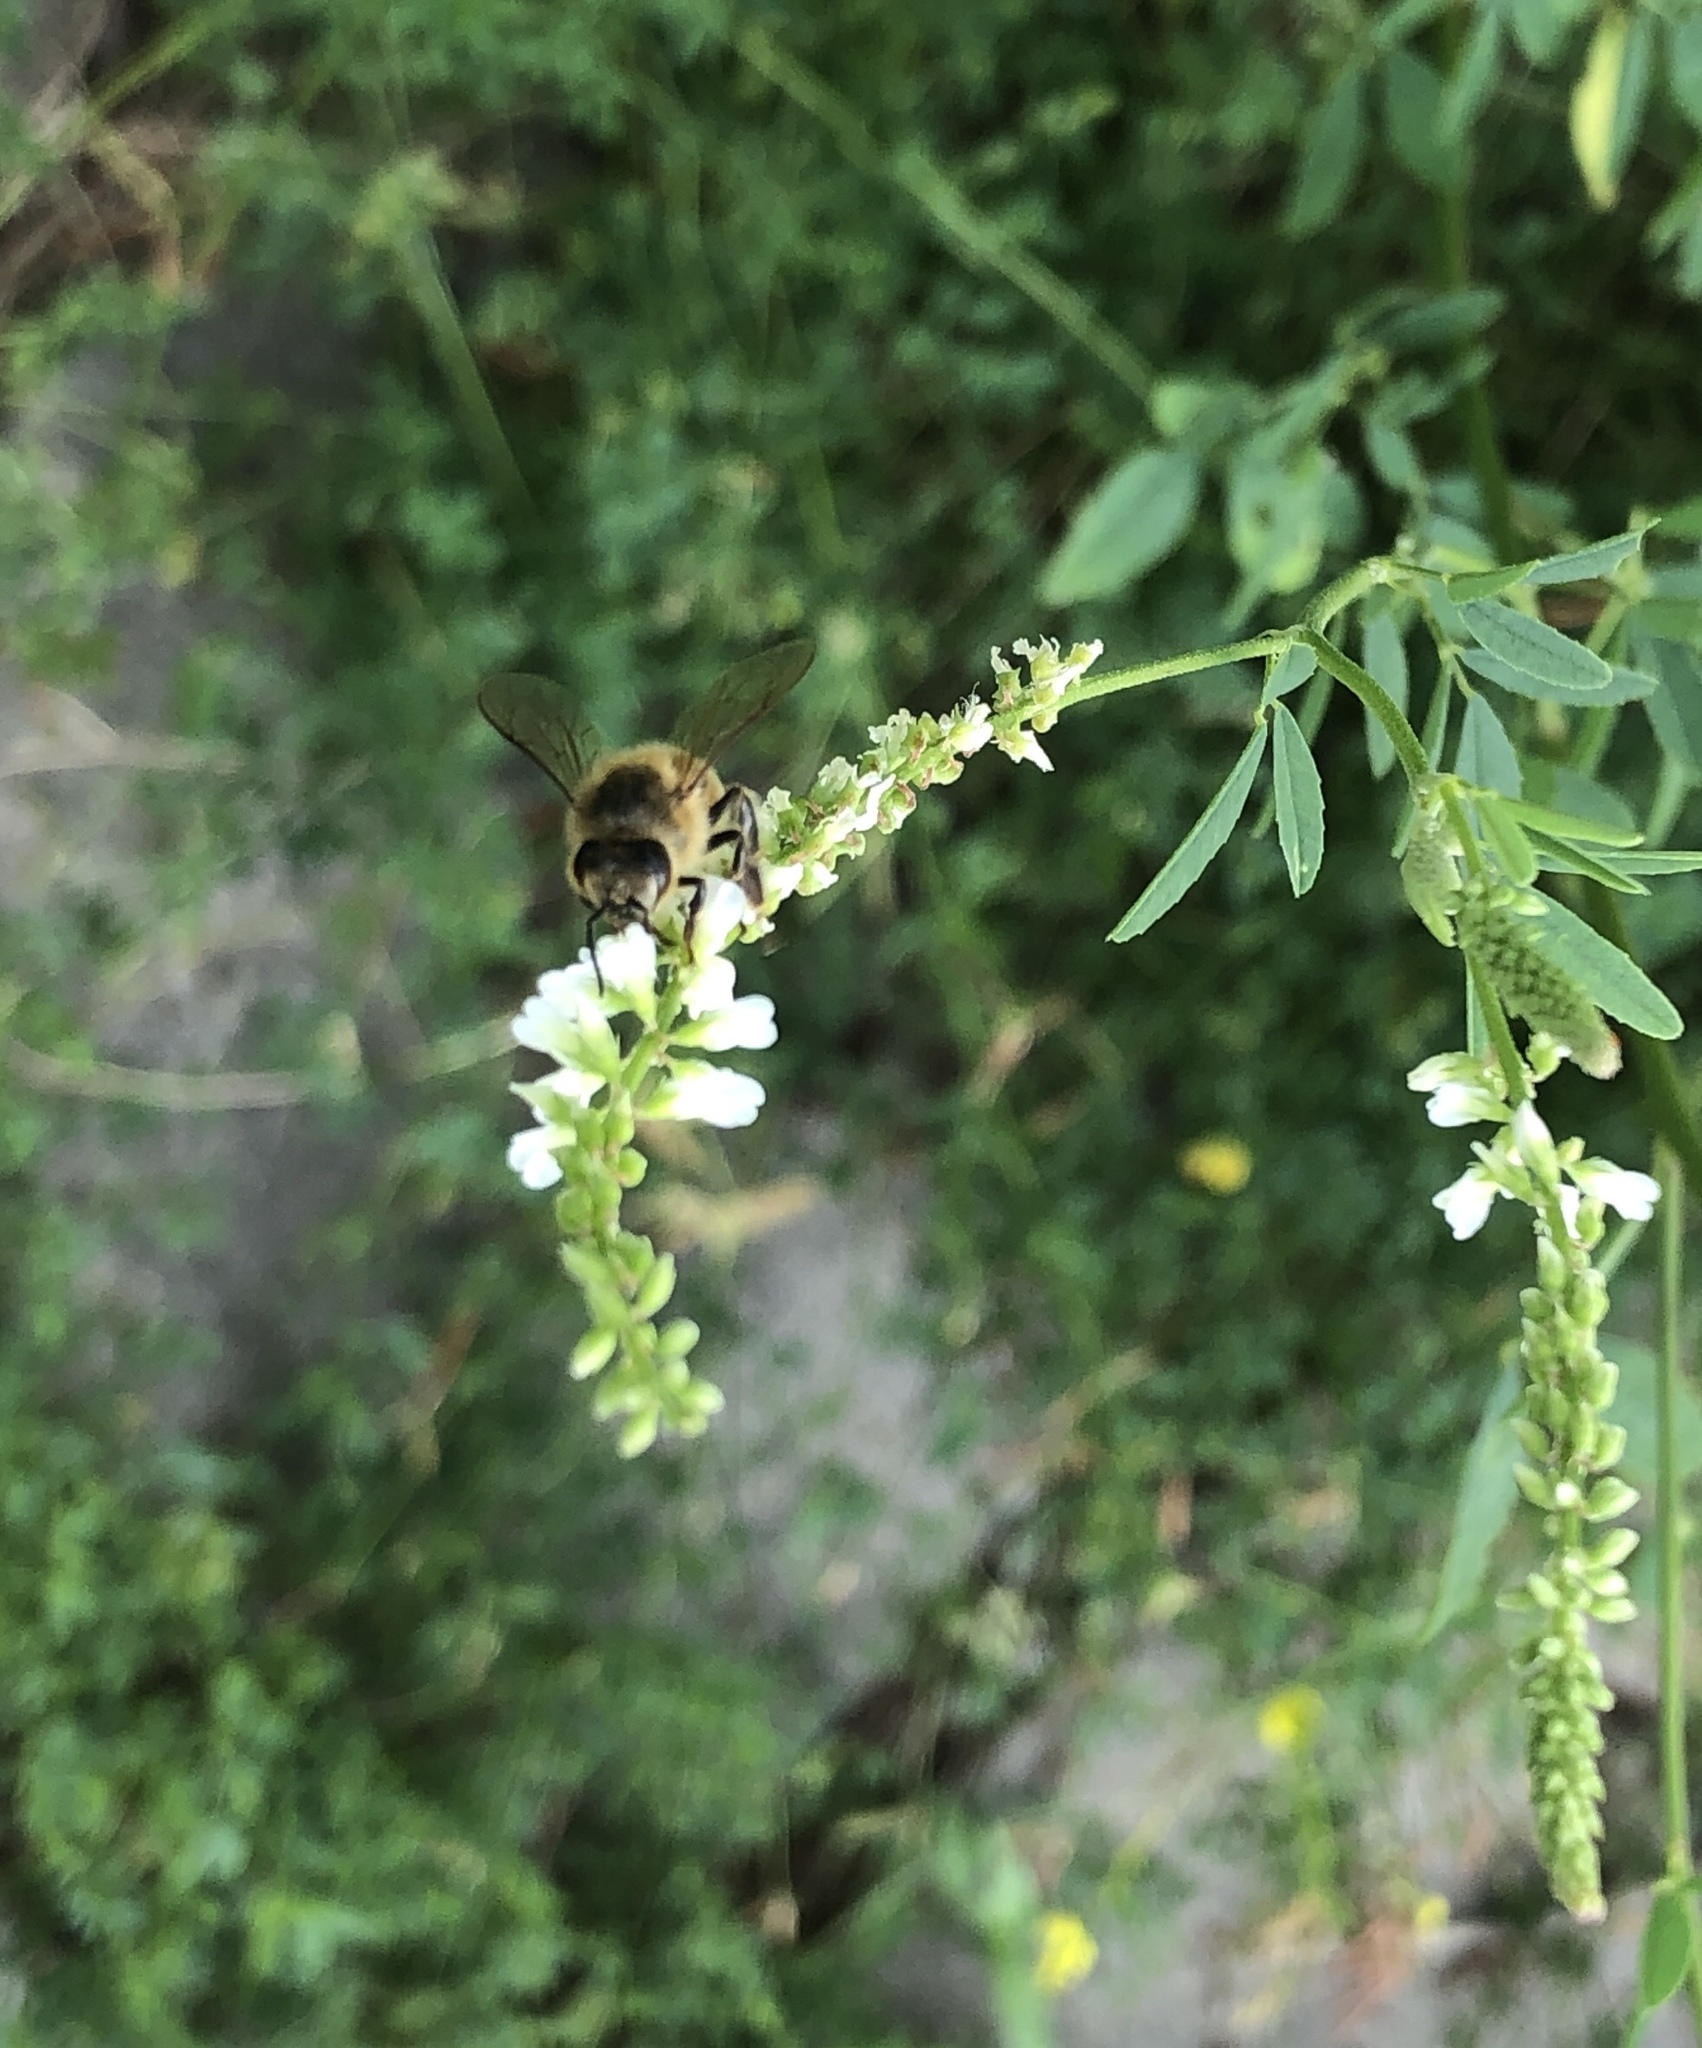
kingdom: Animalia
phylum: Arthropoda
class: Insecta
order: Hymenoptera
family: Apidae
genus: Apis
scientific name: Apis mellifera
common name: Honey bee
